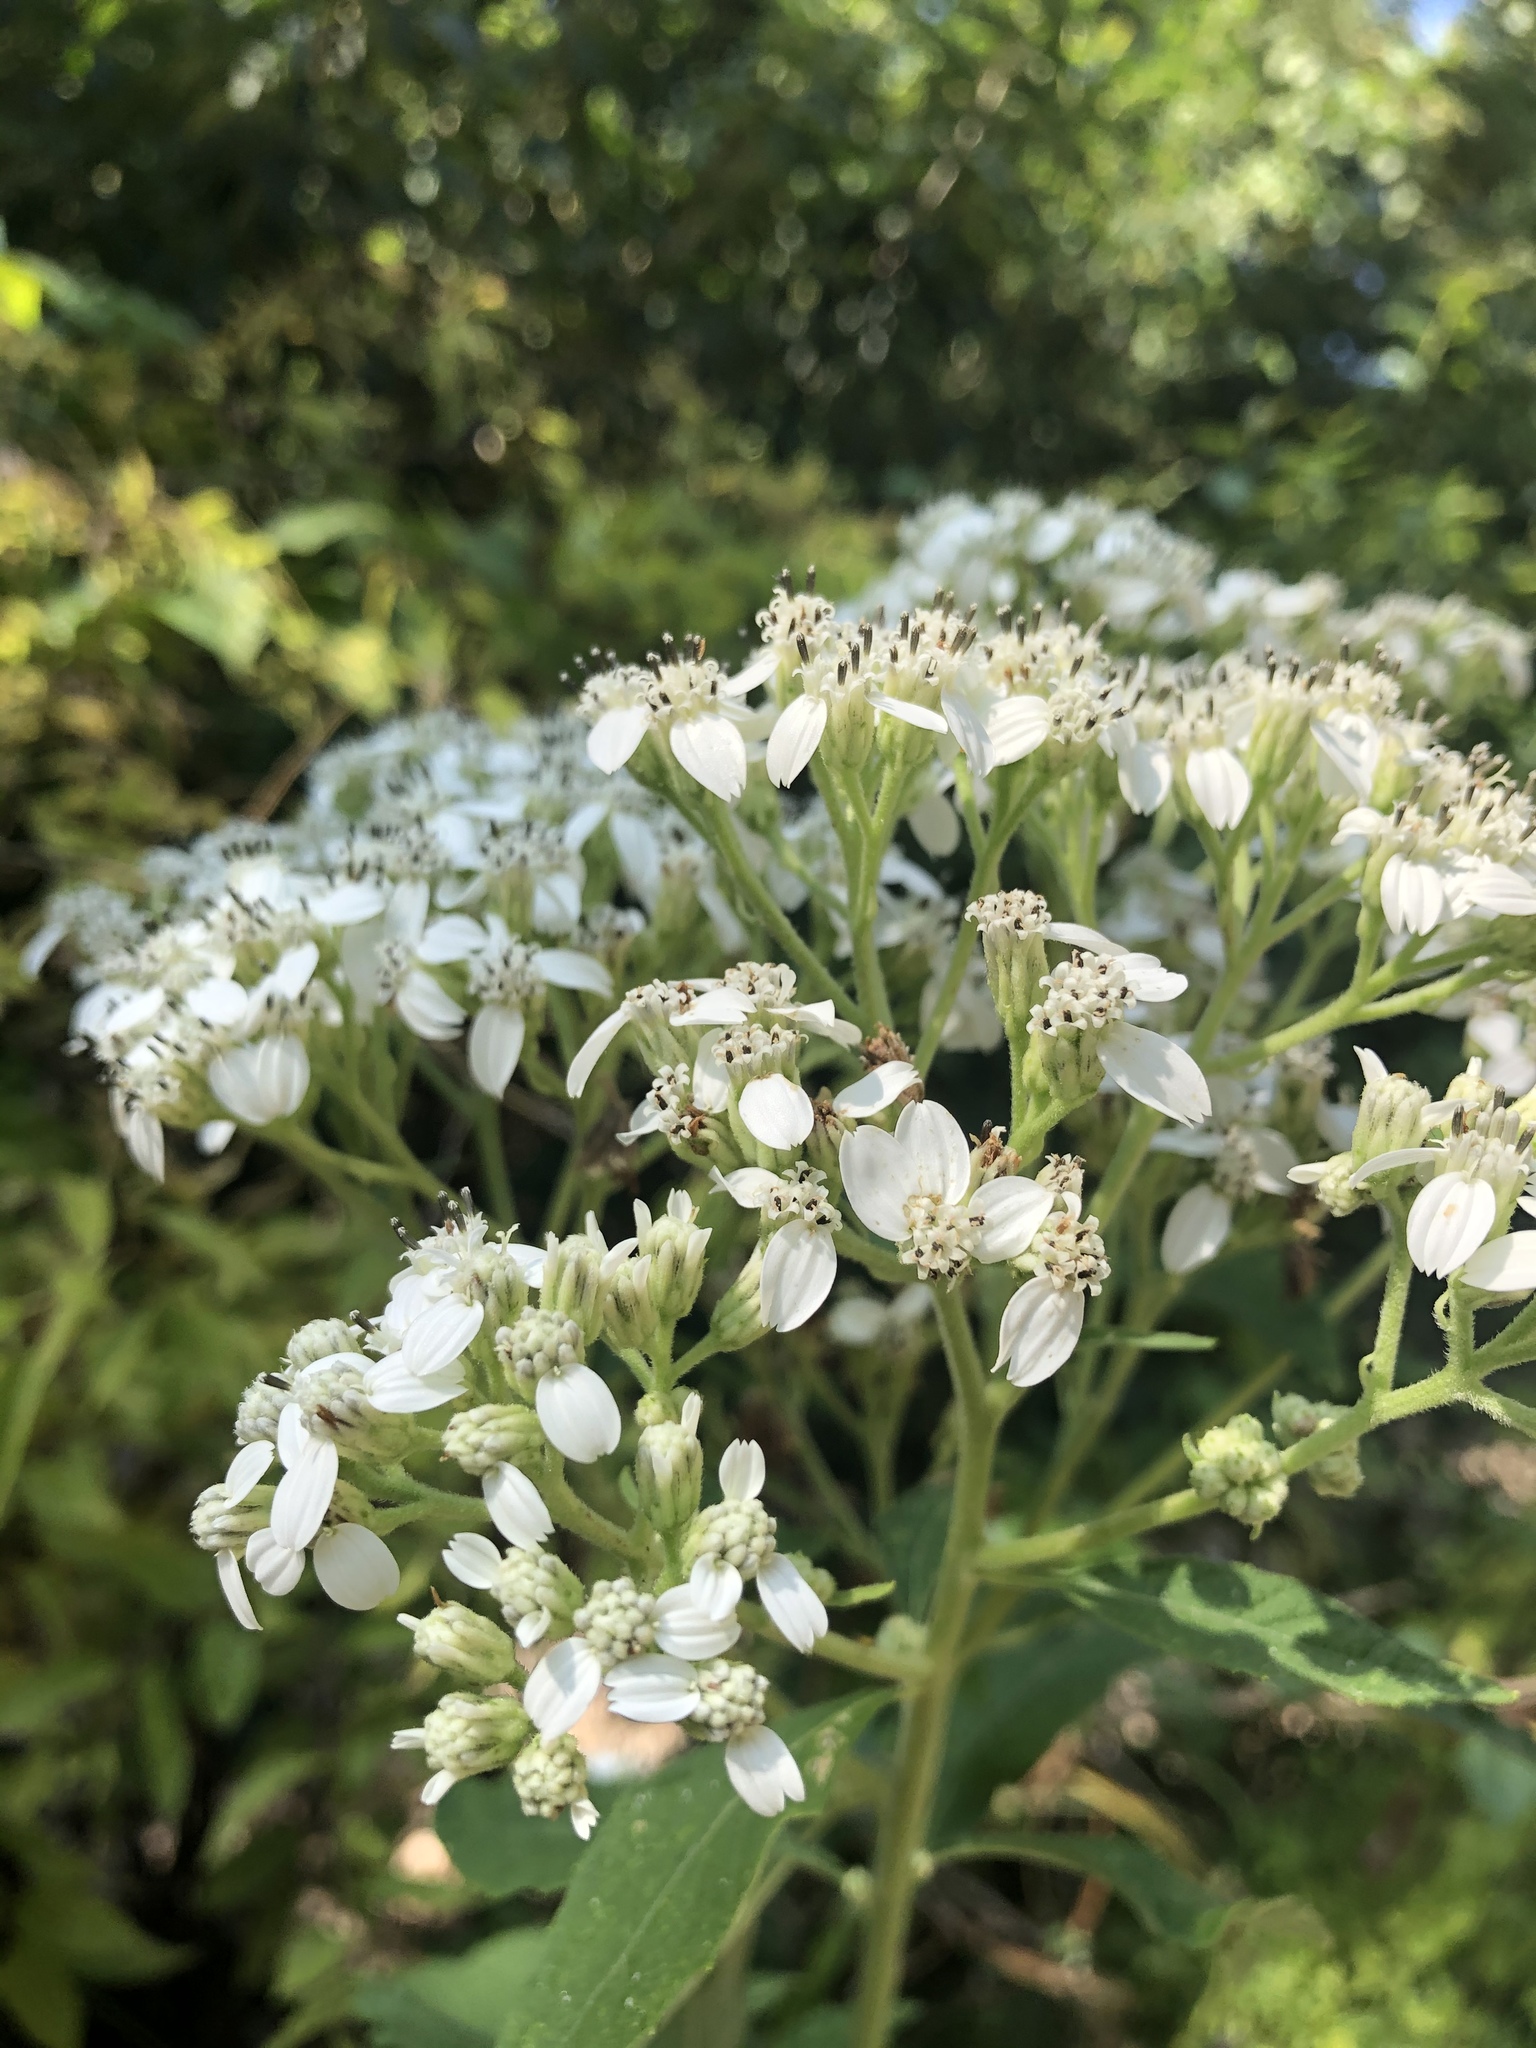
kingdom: Plantae
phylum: Tracheophyta
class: Magnoliopsida
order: Asterales
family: Asteraceae
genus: Verbesina
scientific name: Verbesina virginica
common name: Frostweed
